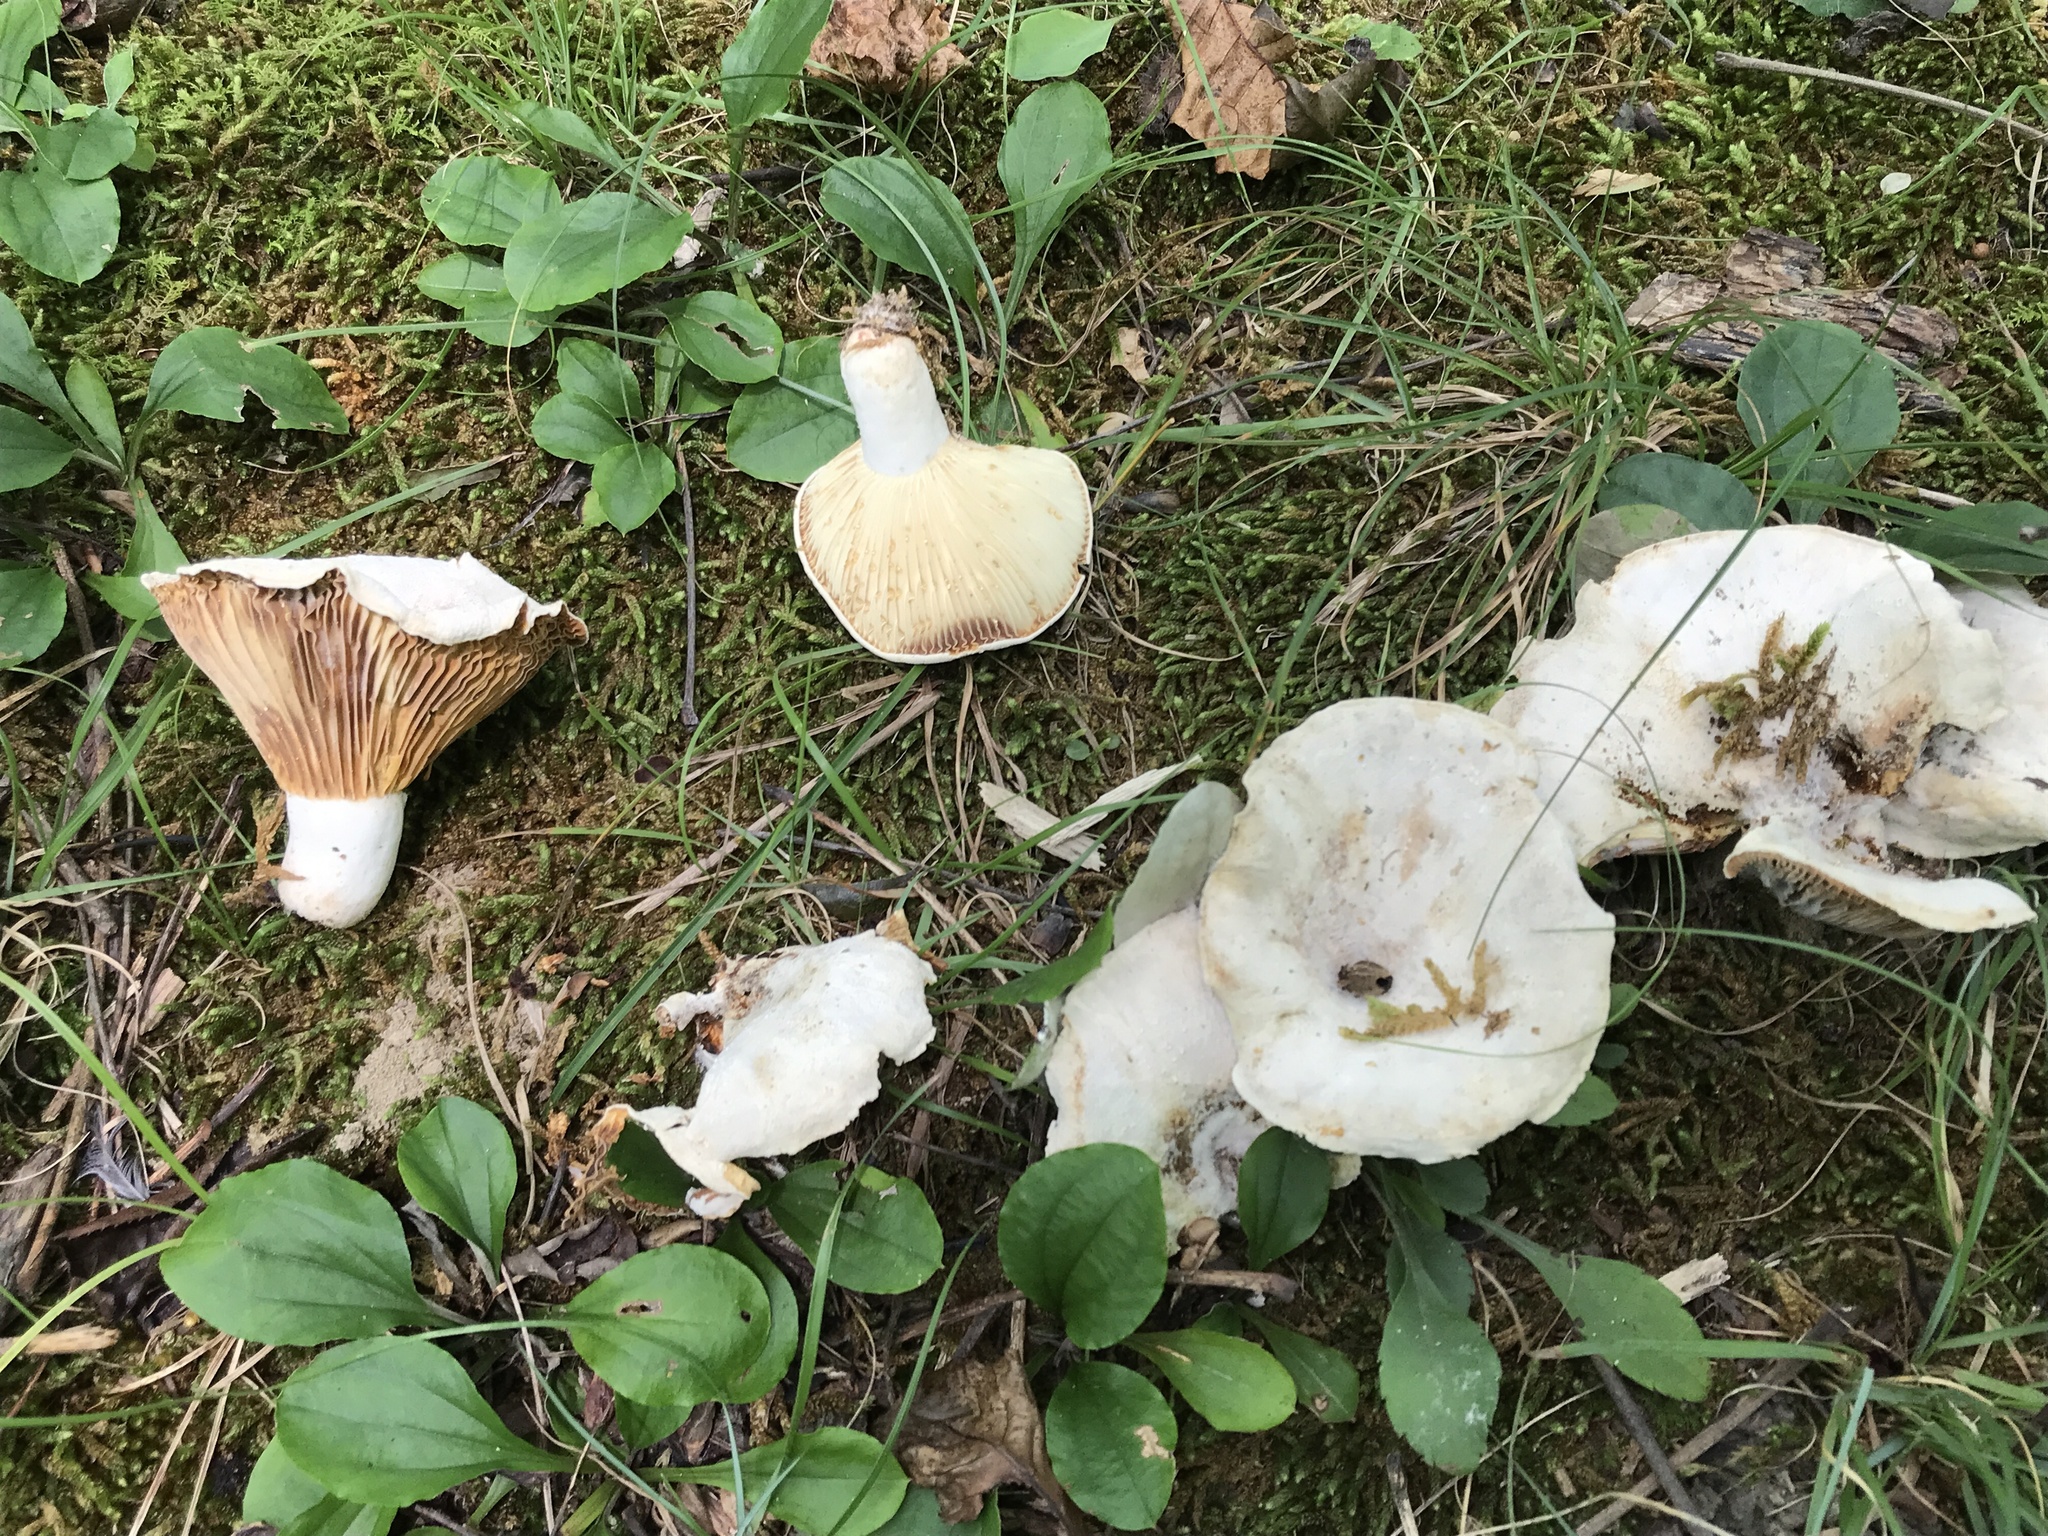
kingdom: Fungi
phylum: Basidiomycota
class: Agaricomycetes
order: Russulales
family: Russulaceae
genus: Lactifluus
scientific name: Lactifluus subvellereus
